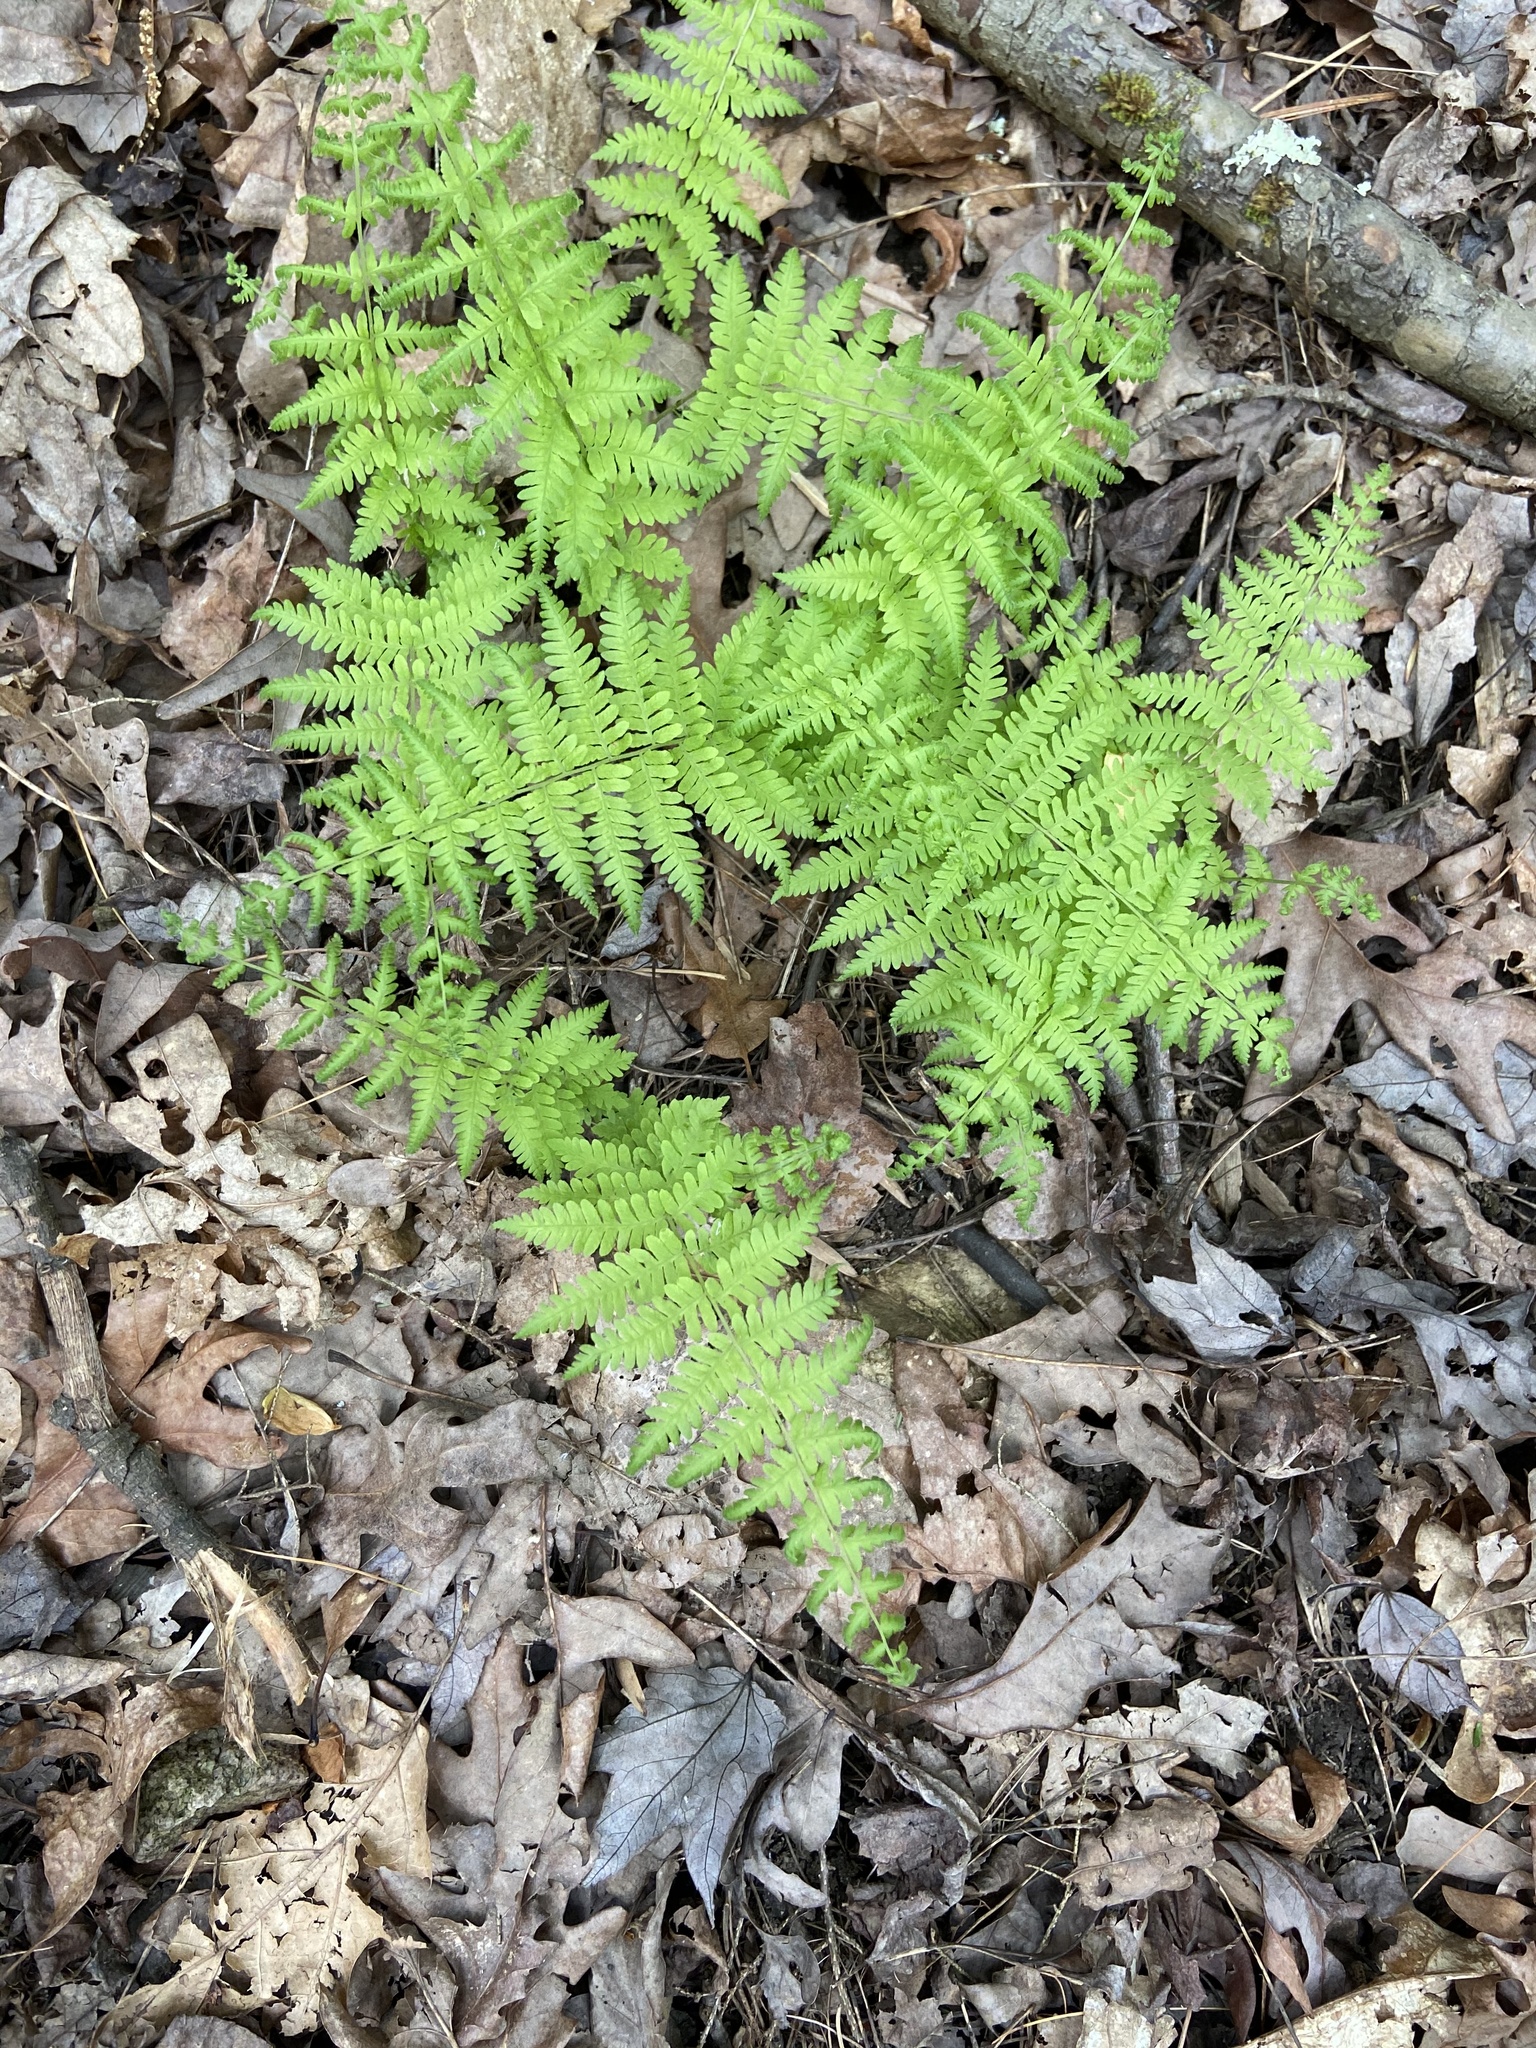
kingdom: Plantae
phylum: Tracheophyta
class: Polypodiopsida
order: Polypodiales
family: Thelypteridaceae
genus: Amauropelta
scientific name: Amauropelta noveboracensis
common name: New york fern
